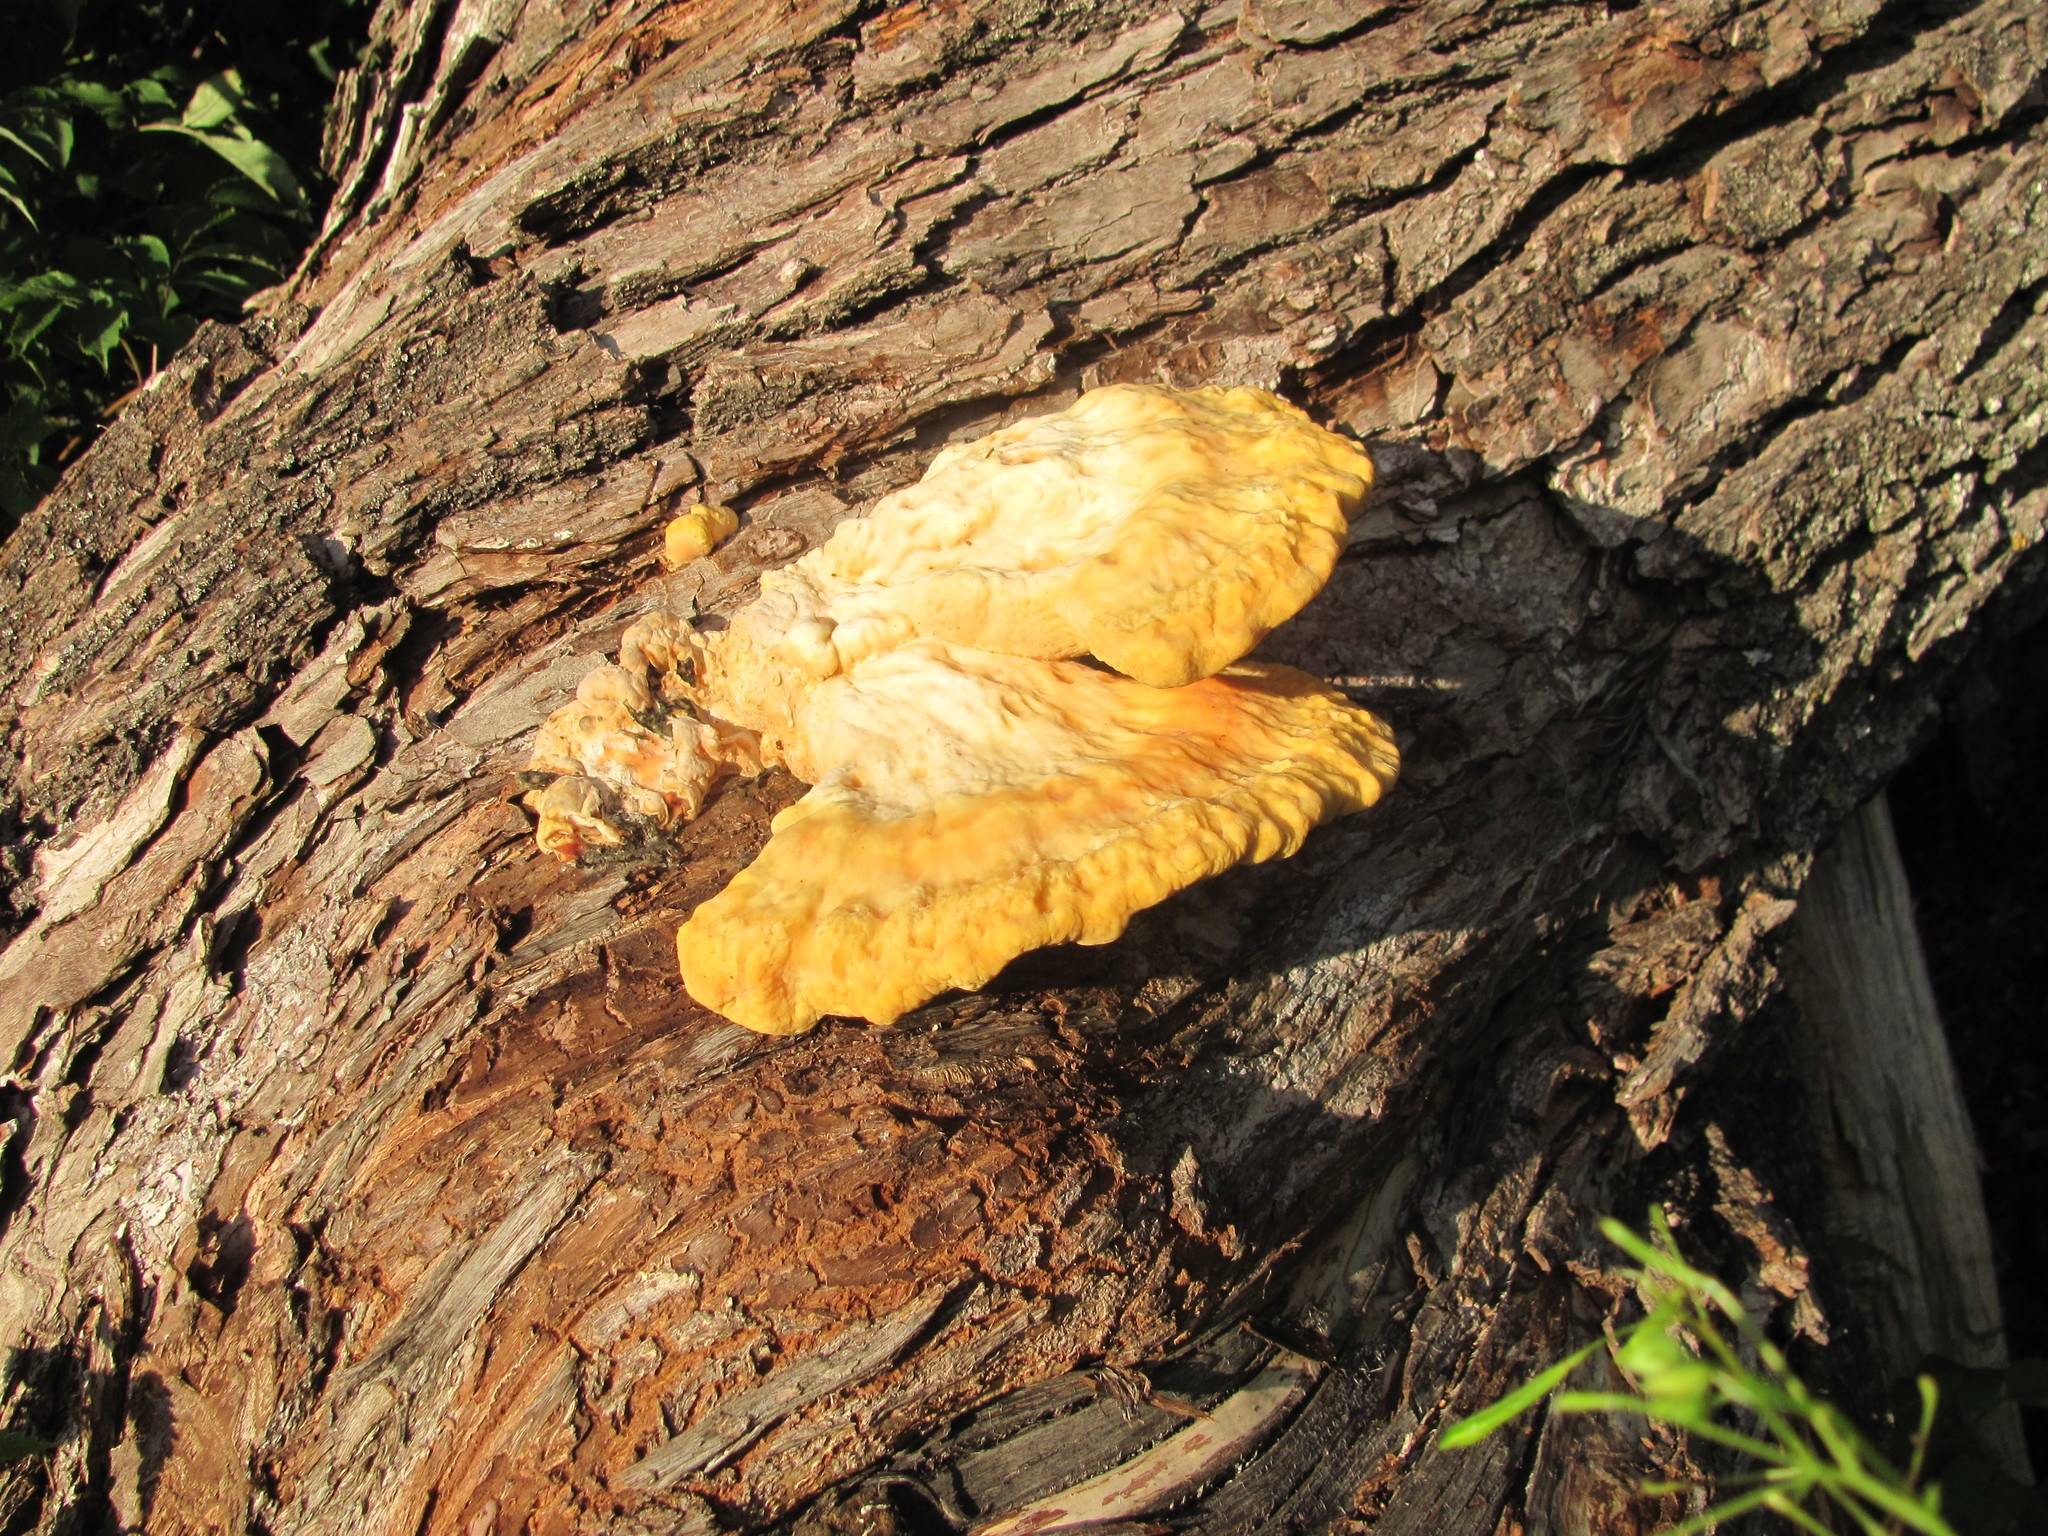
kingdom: Fungi
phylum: Basidiomycota
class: Agaricomycetes
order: Polyporales
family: Laetiporaceae
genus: Laetiporus
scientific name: Laetiporus sulphureus
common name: Chicken of the woods
